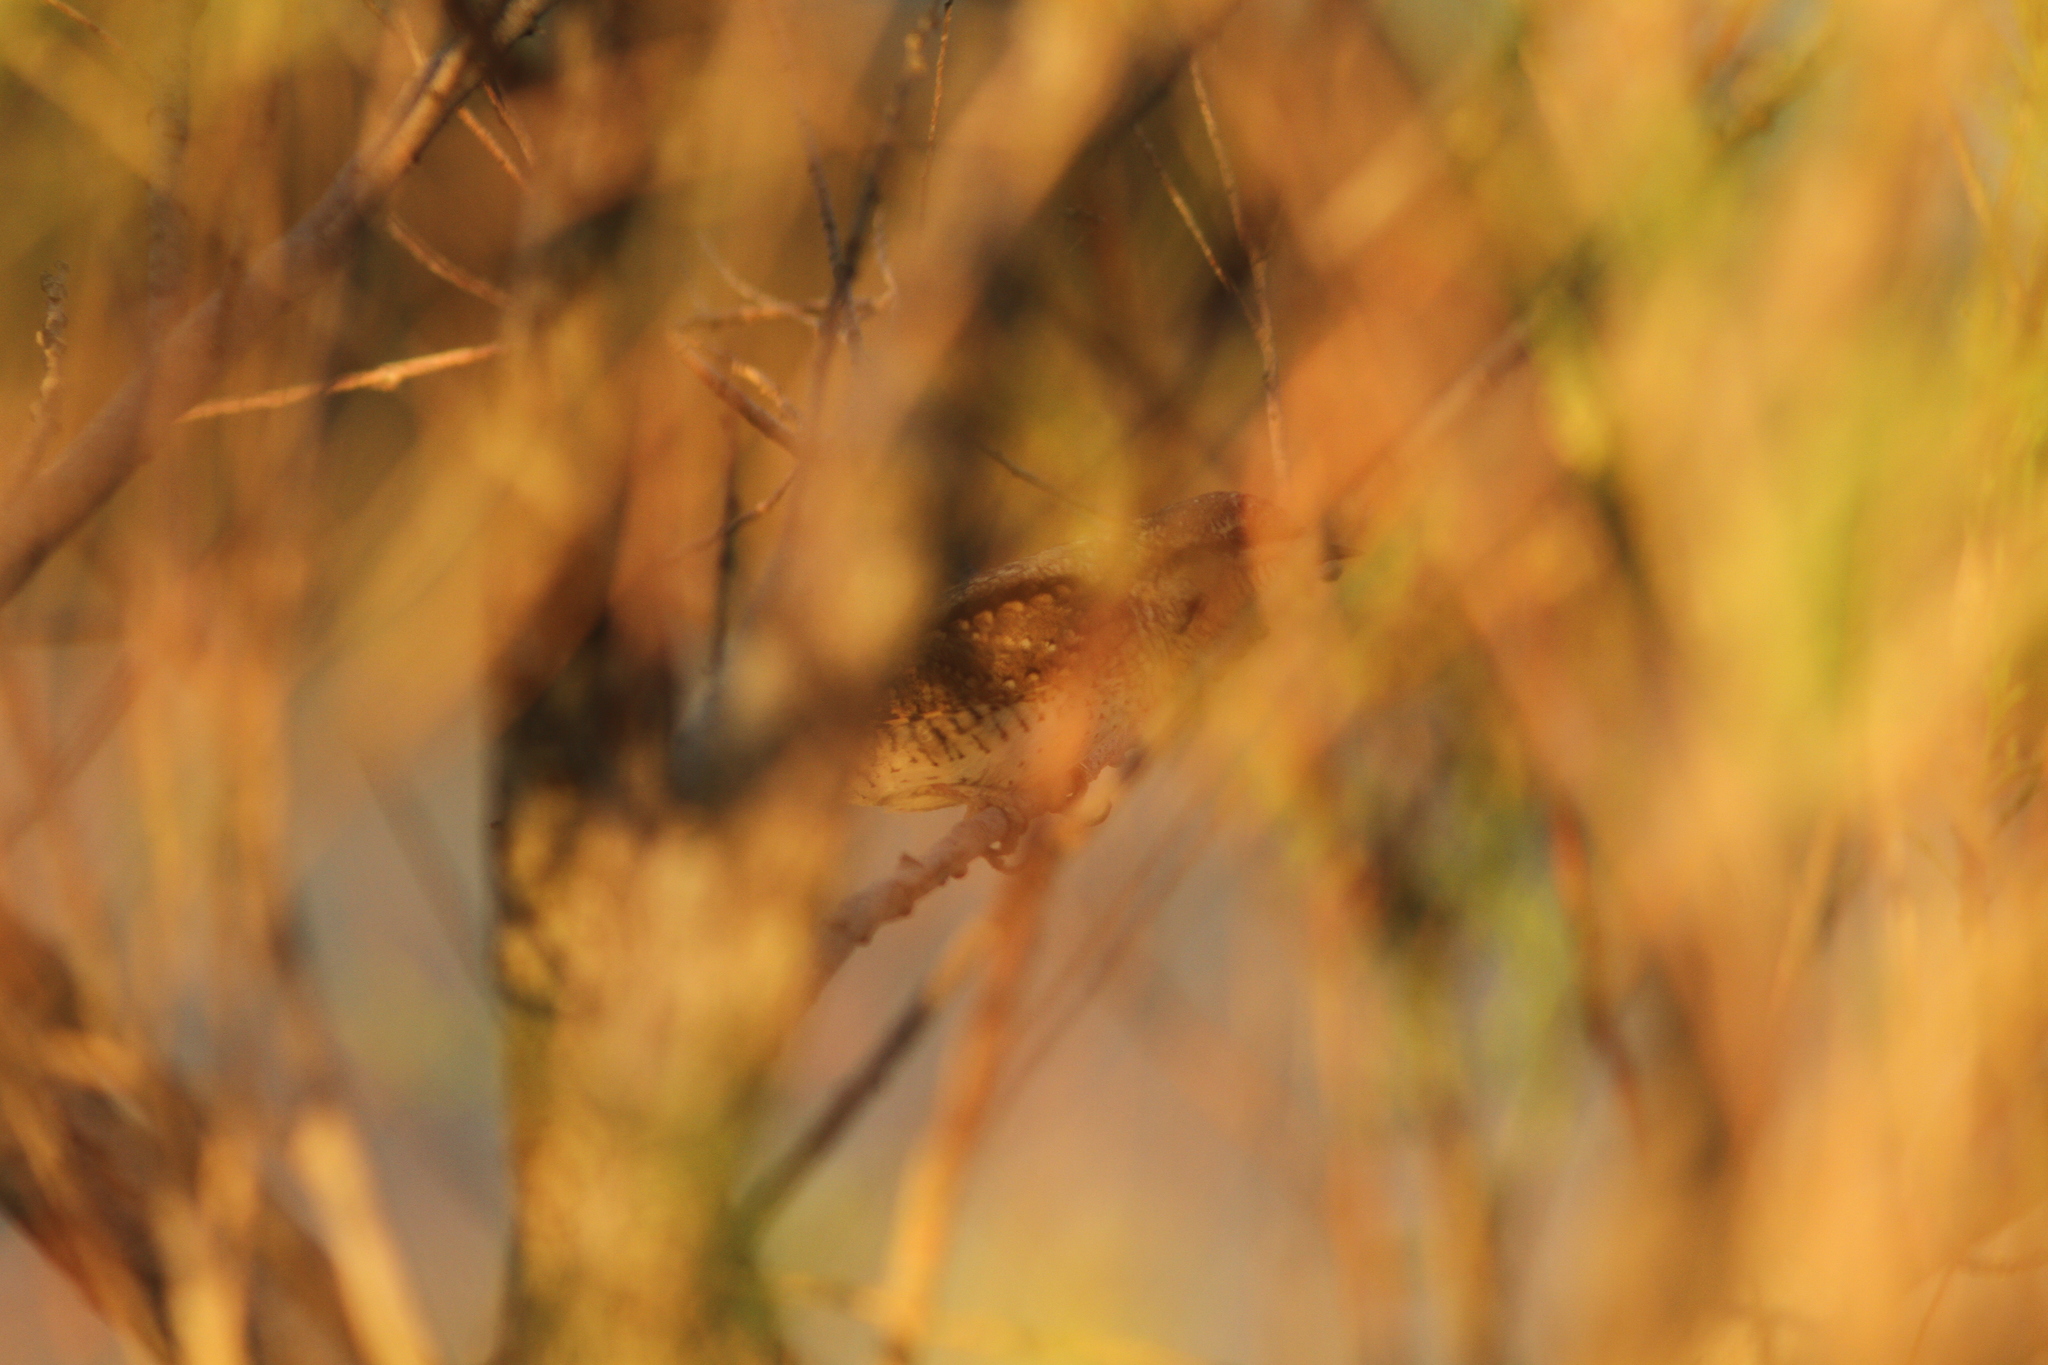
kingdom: Animalia
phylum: Chordata
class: Aves
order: Piciformes
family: Picidae
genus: Jynx
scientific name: Jynx torquilla
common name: Eurasian wryneck
